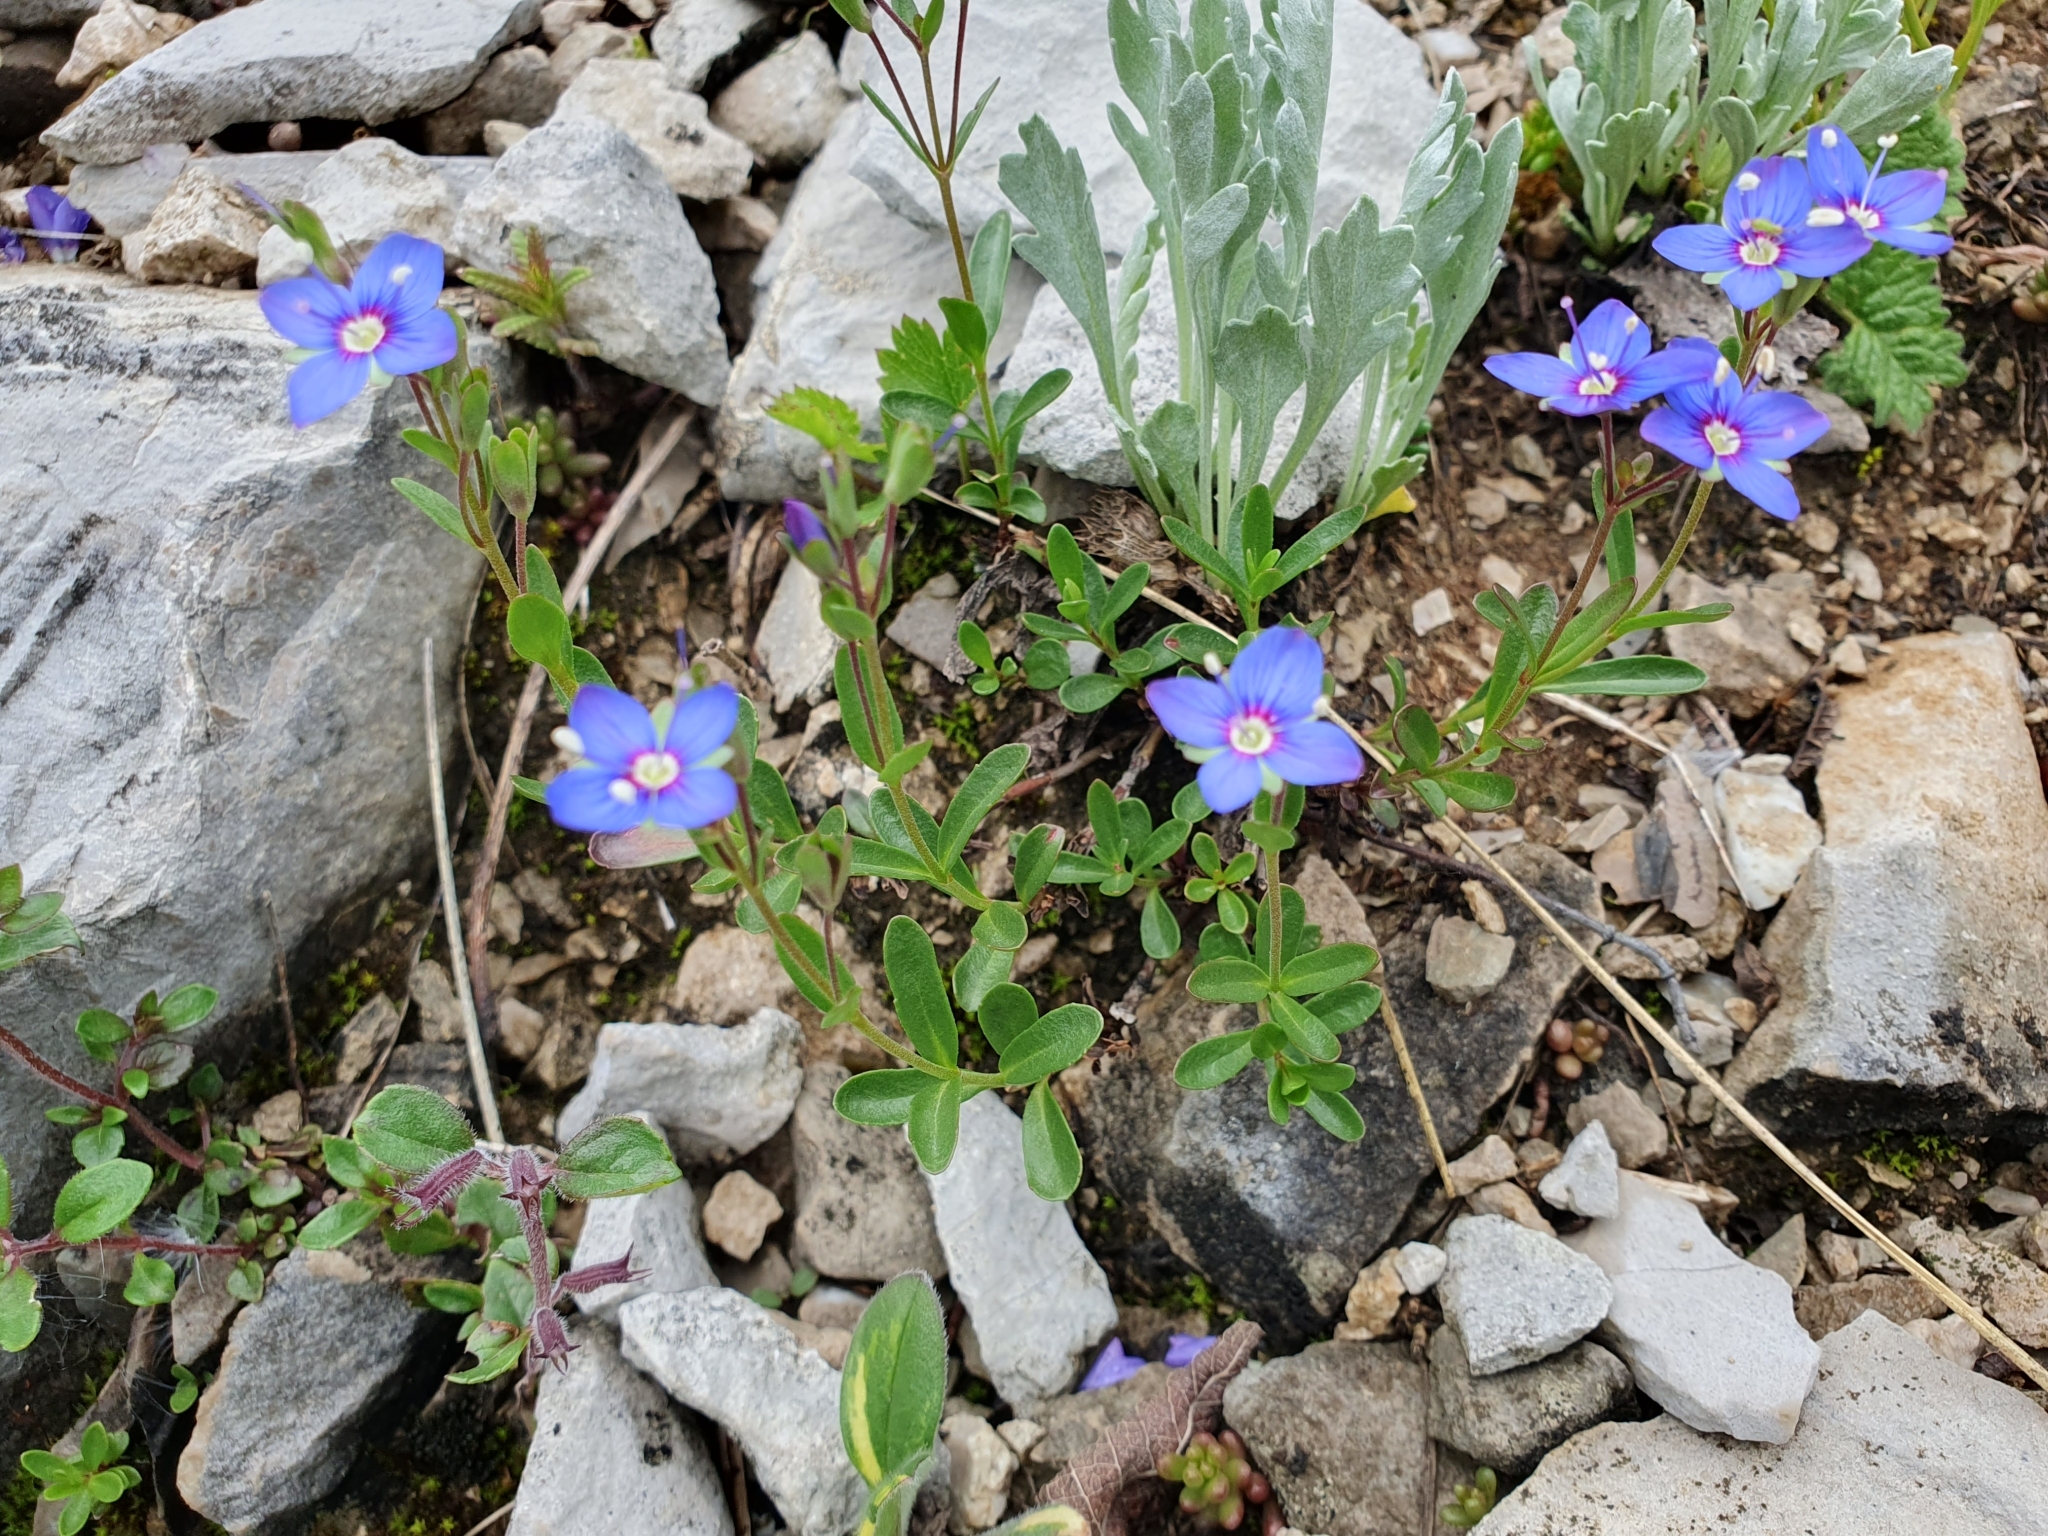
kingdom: Plantae
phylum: Tracheophyta
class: Magnoliopsida
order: Lamiales
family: Plantaginaceae
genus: Veronica
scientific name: Veronica fruticans
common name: Rock speedwell
